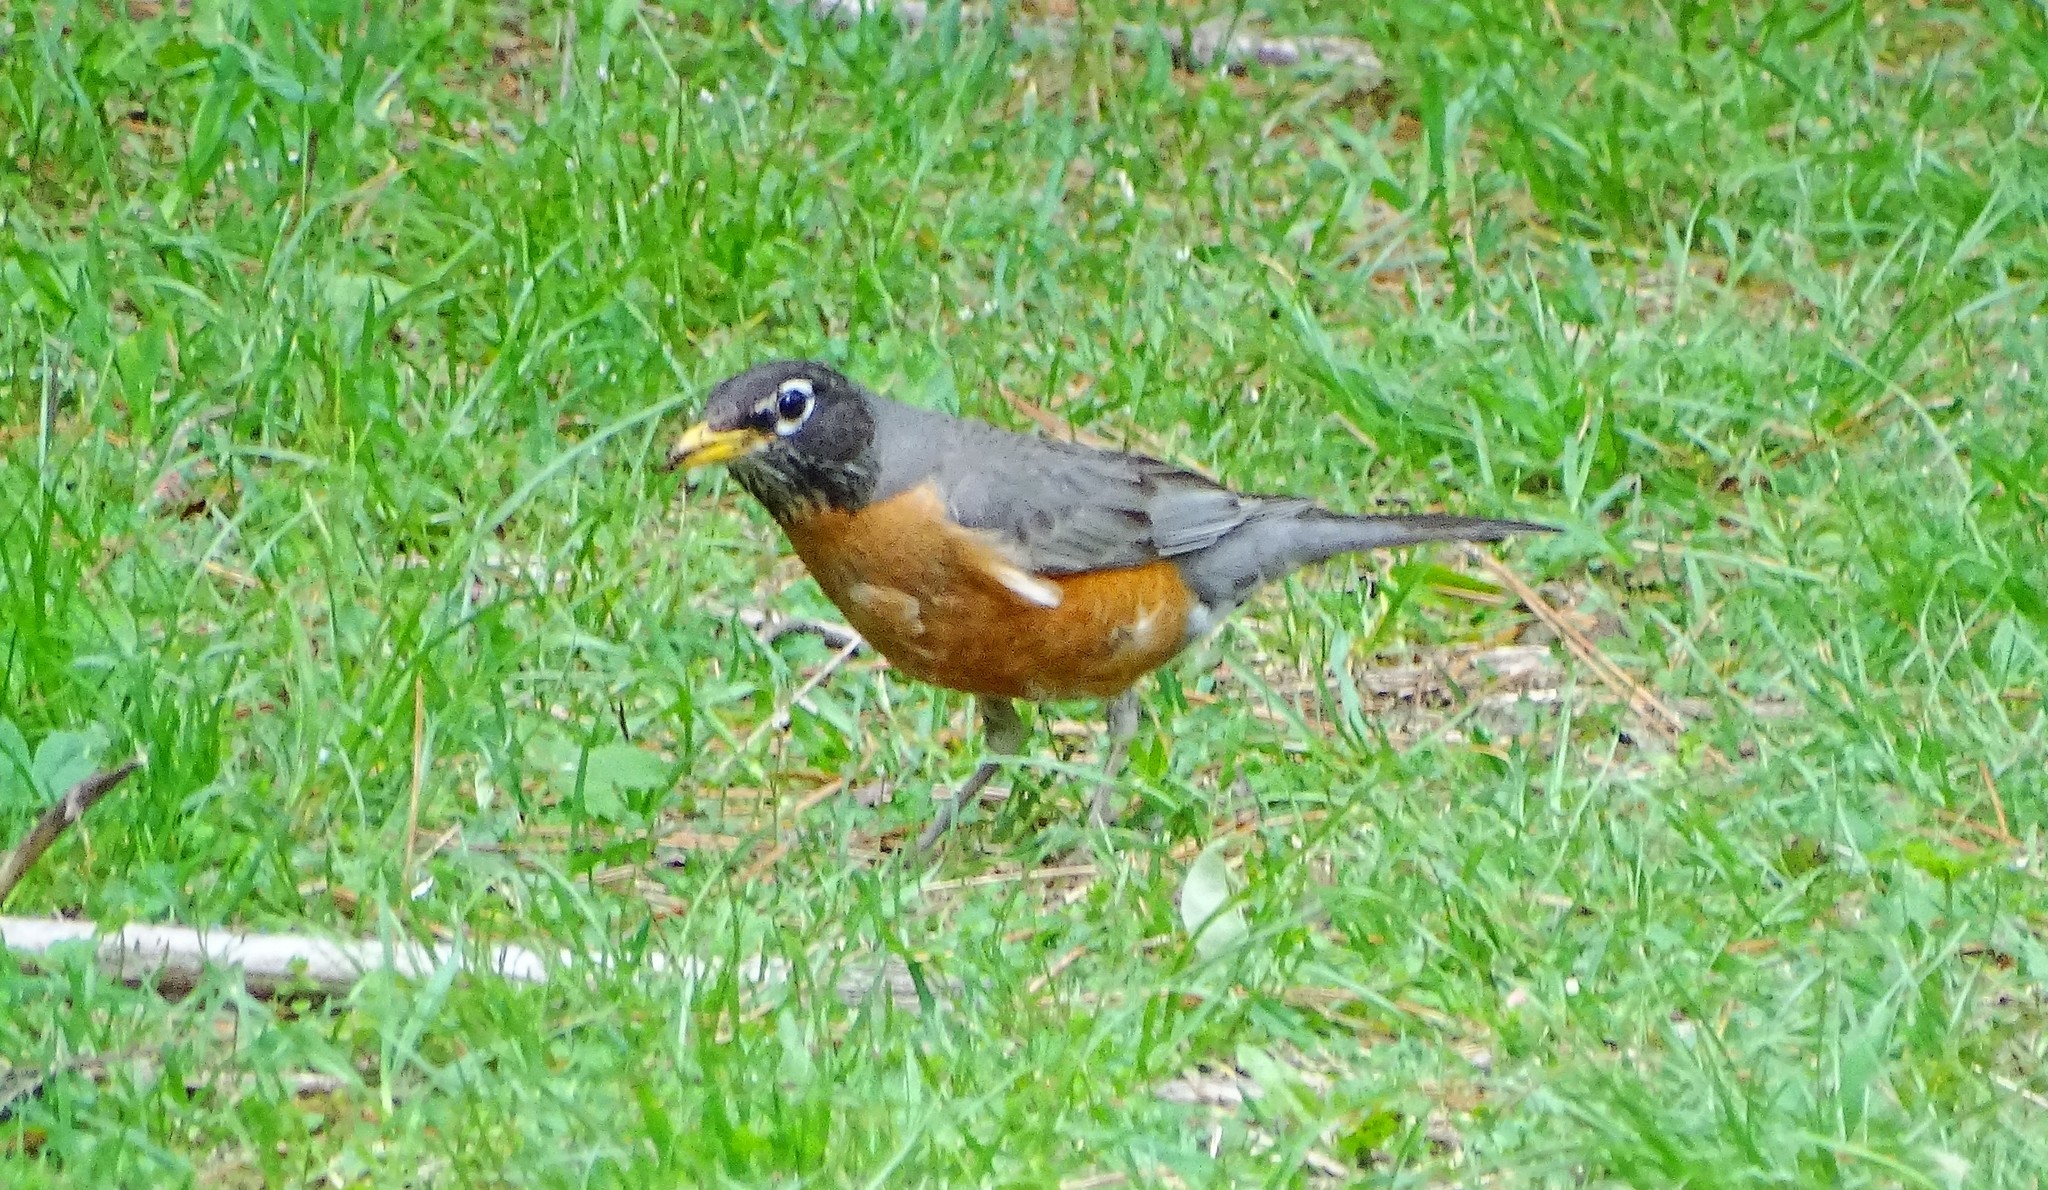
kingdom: Animalia
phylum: Chordata
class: Aves
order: Passeriformes
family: Turdidae
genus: Turdus
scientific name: Turdus migratorius
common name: American robin
